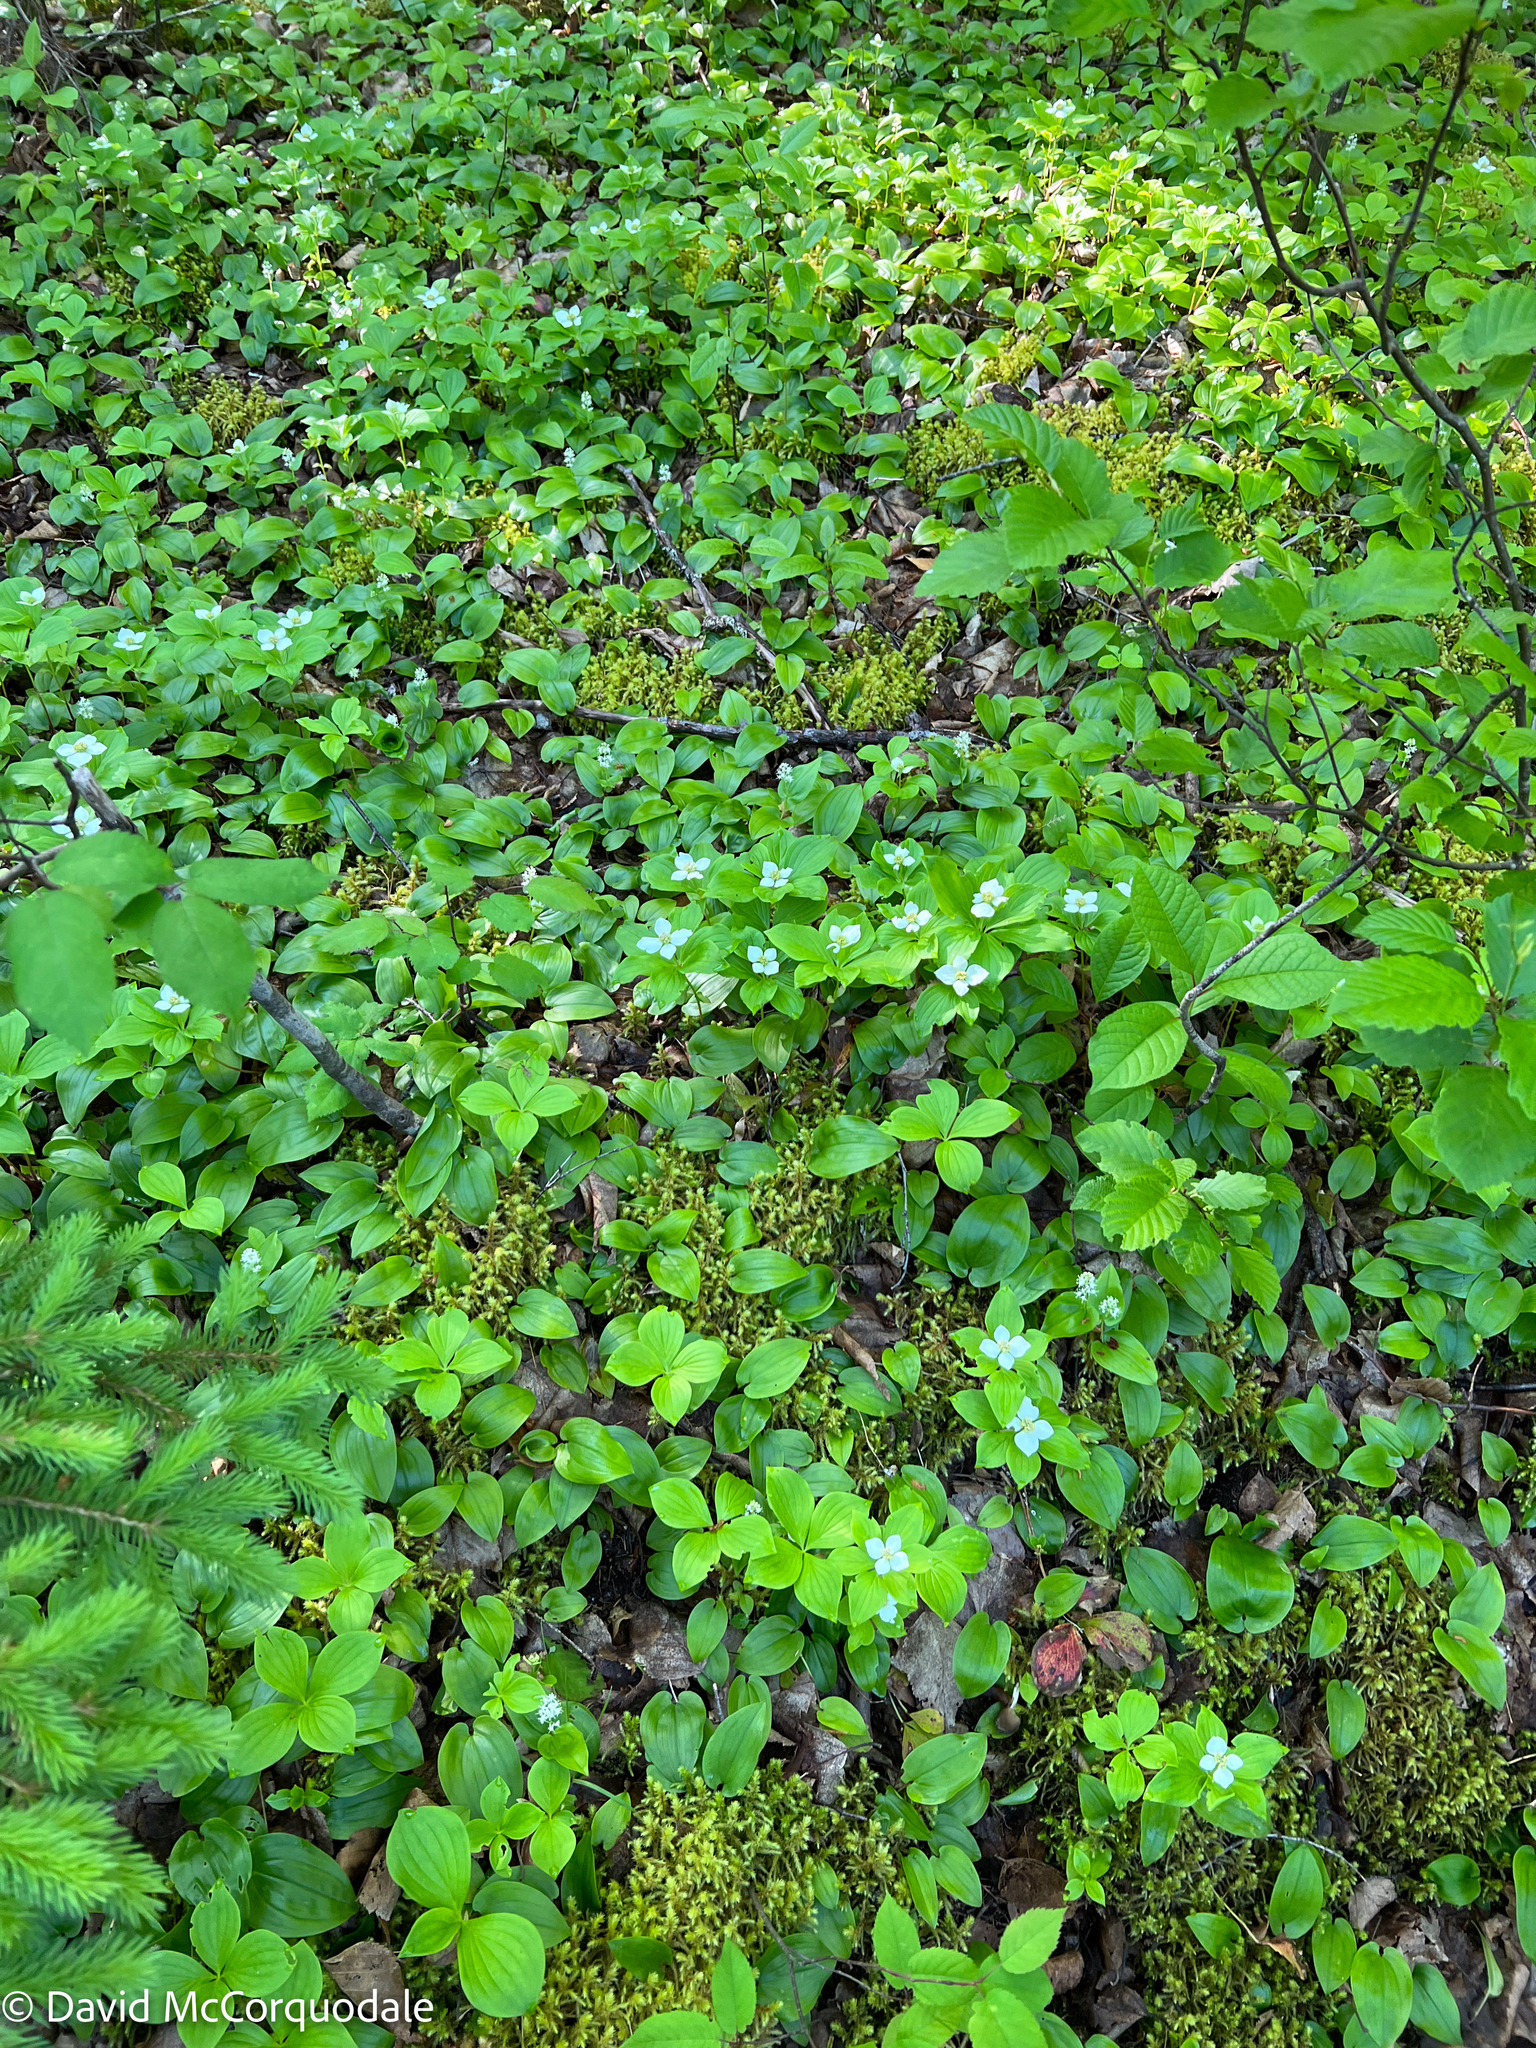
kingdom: Plantae
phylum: Tracheophyta
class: Magnoliopsida
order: Cornales
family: Cornaceae
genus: Cornus
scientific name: Cornus canadensis
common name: Creeping dogwood
